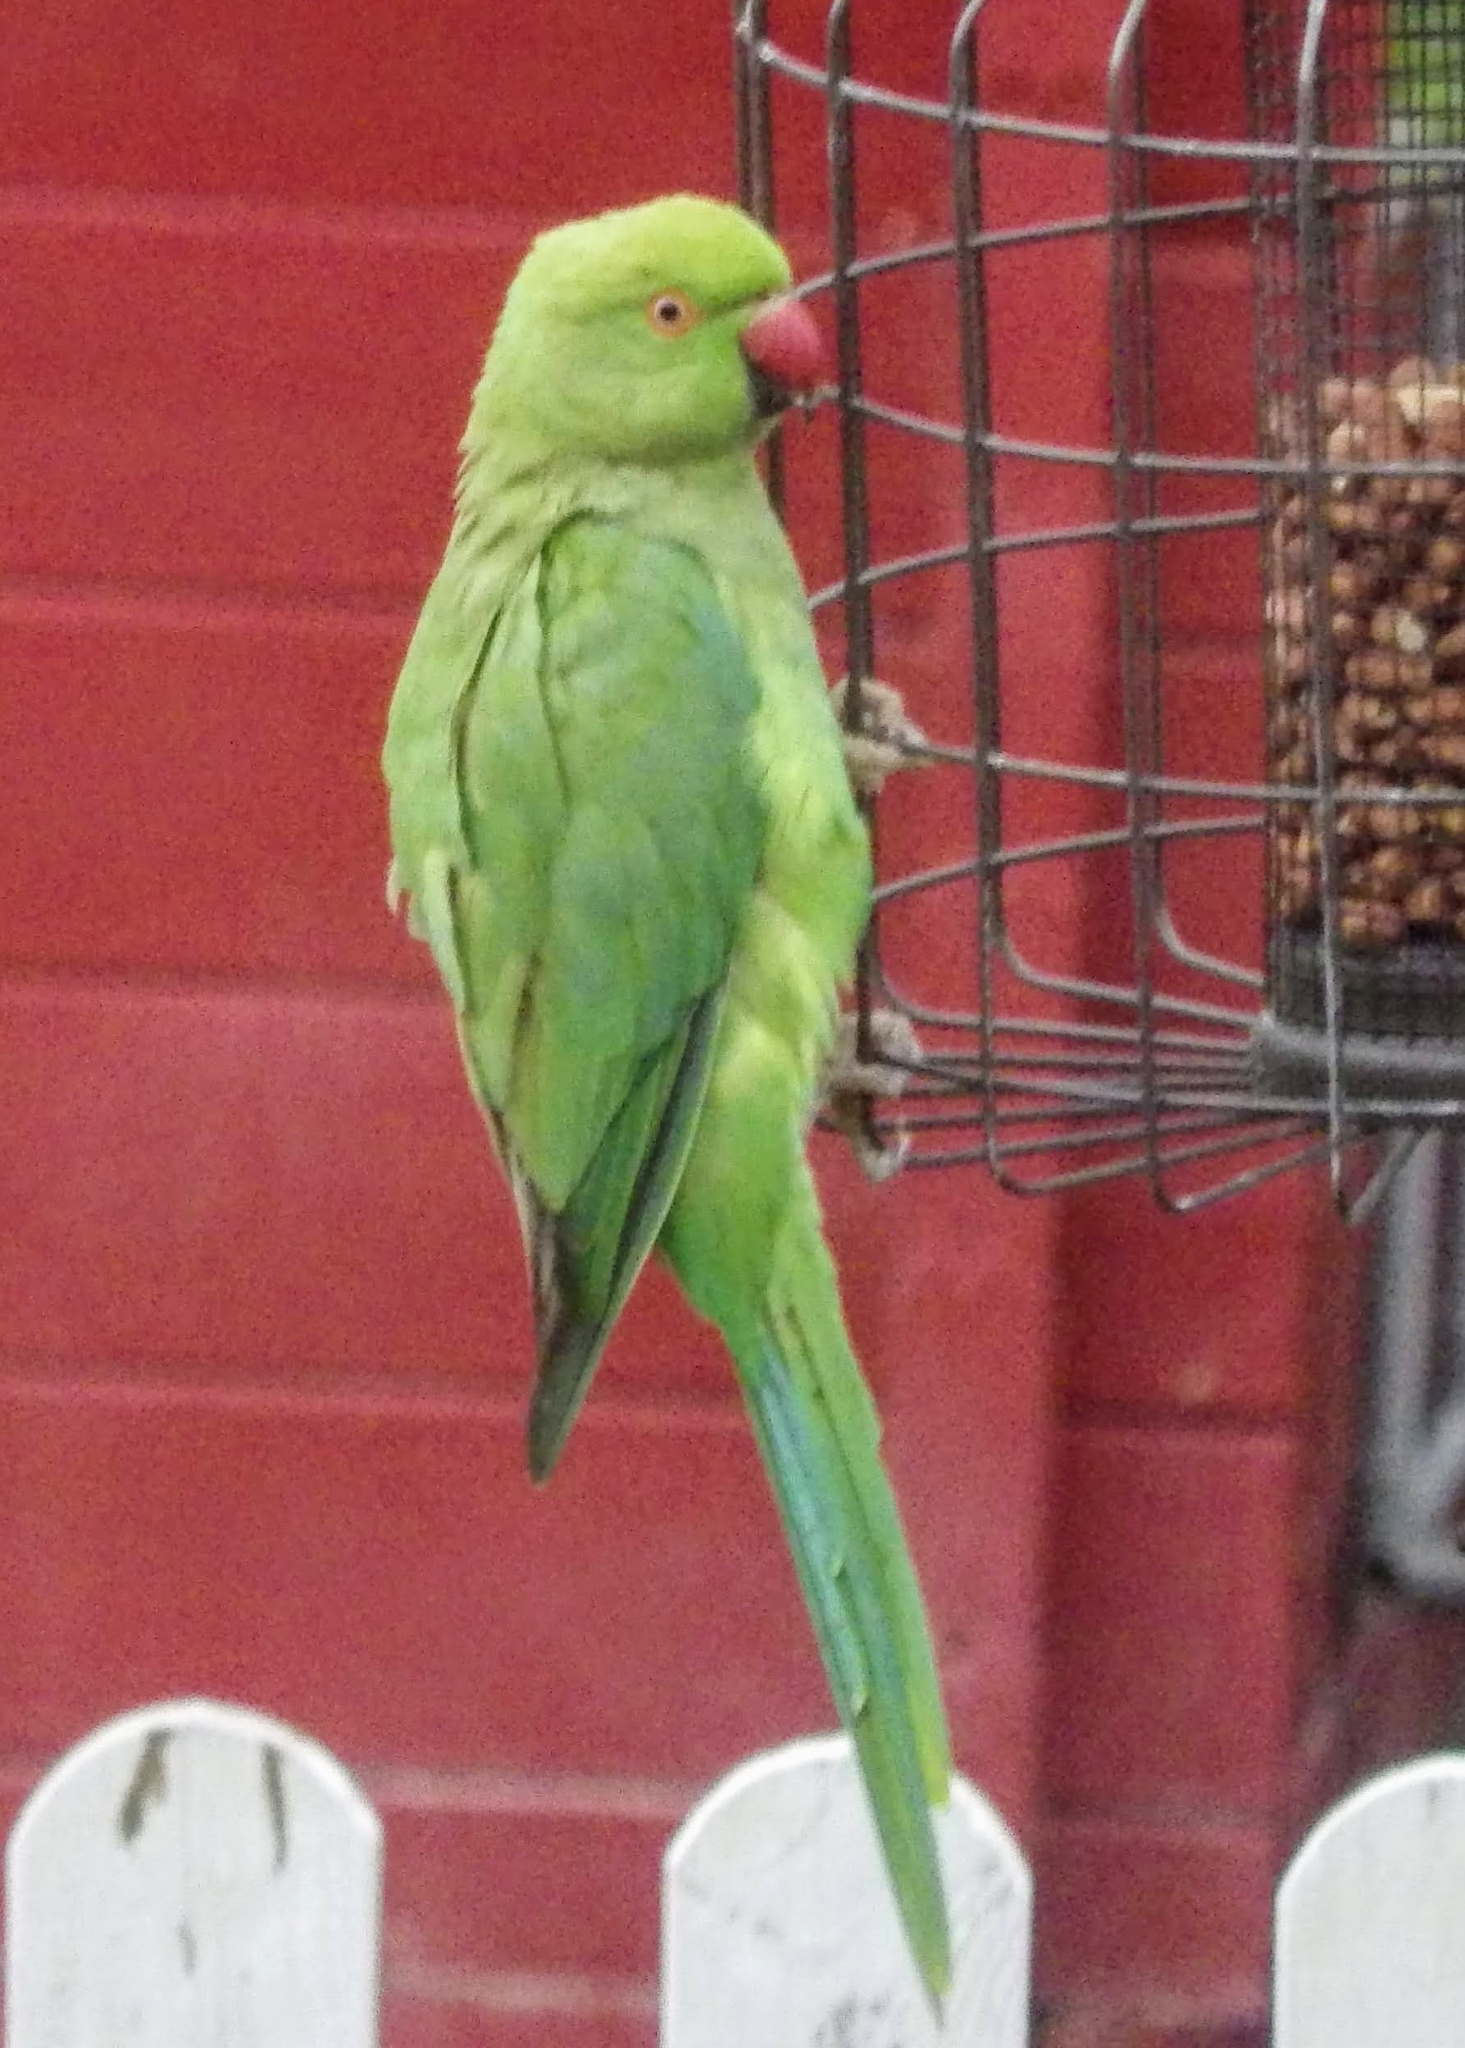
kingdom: Animalia
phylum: Chordata
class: Aves
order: Psittaciformes
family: Psittacidae
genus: Psittacula
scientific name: Psittacula krameri
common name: Rose-ringed parakeet
